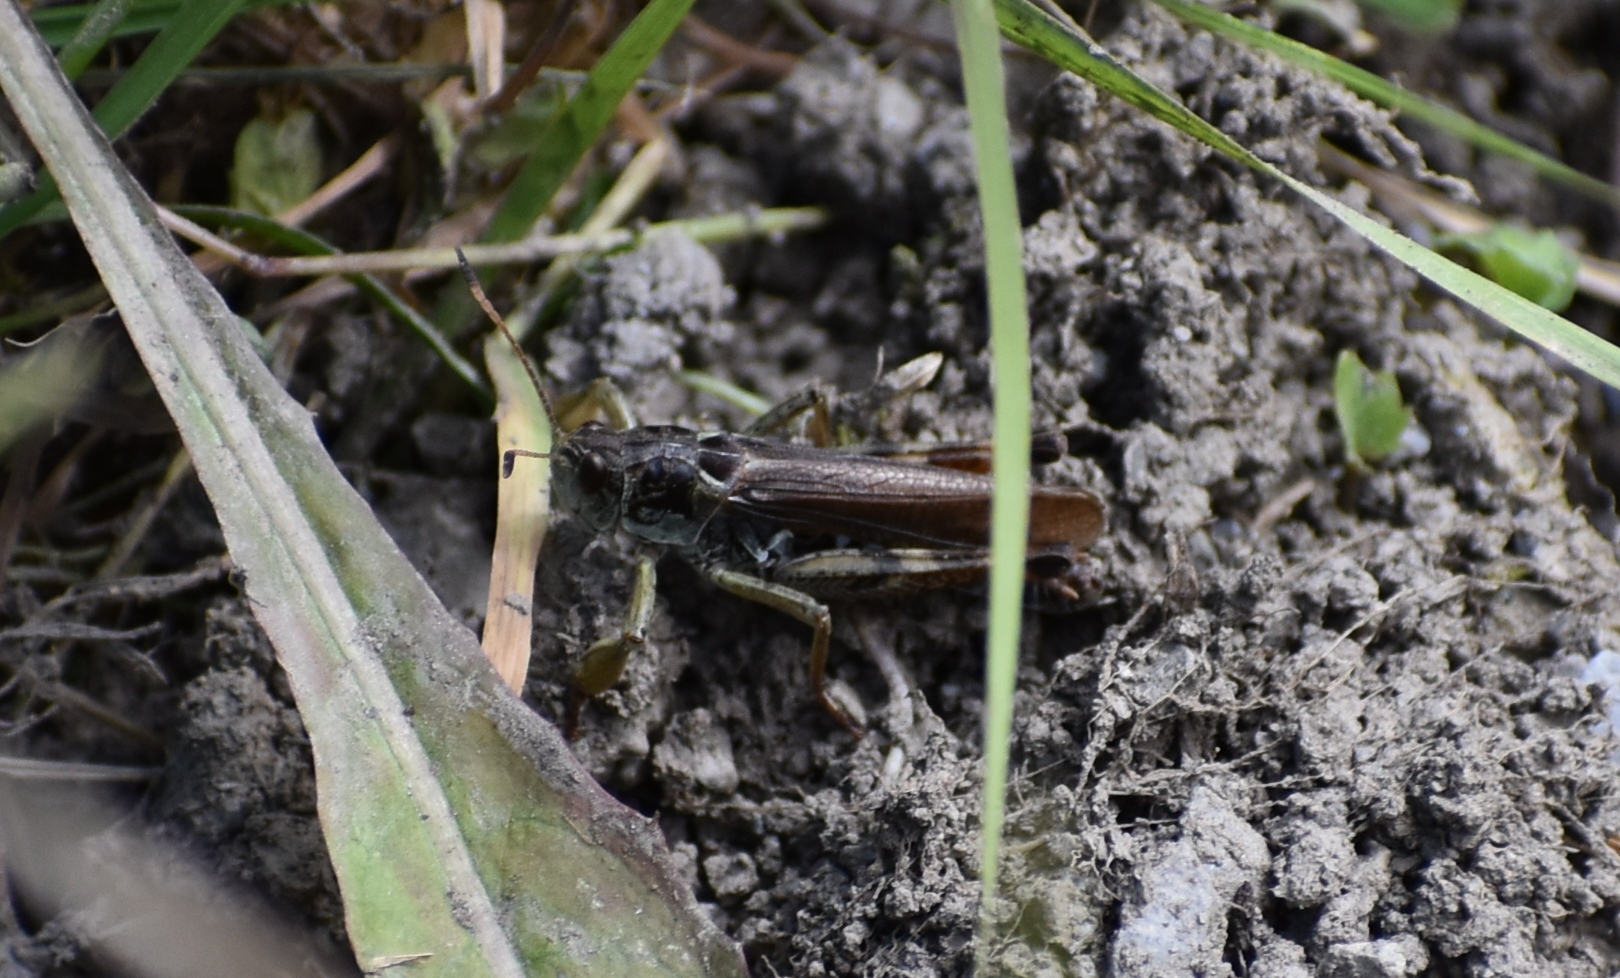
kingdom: Animalia
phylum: Arthropoda
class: Insecta
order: Orthoptera
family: Acrididae
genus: Gomphocerus
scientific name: Gomphocerus sibiricus
